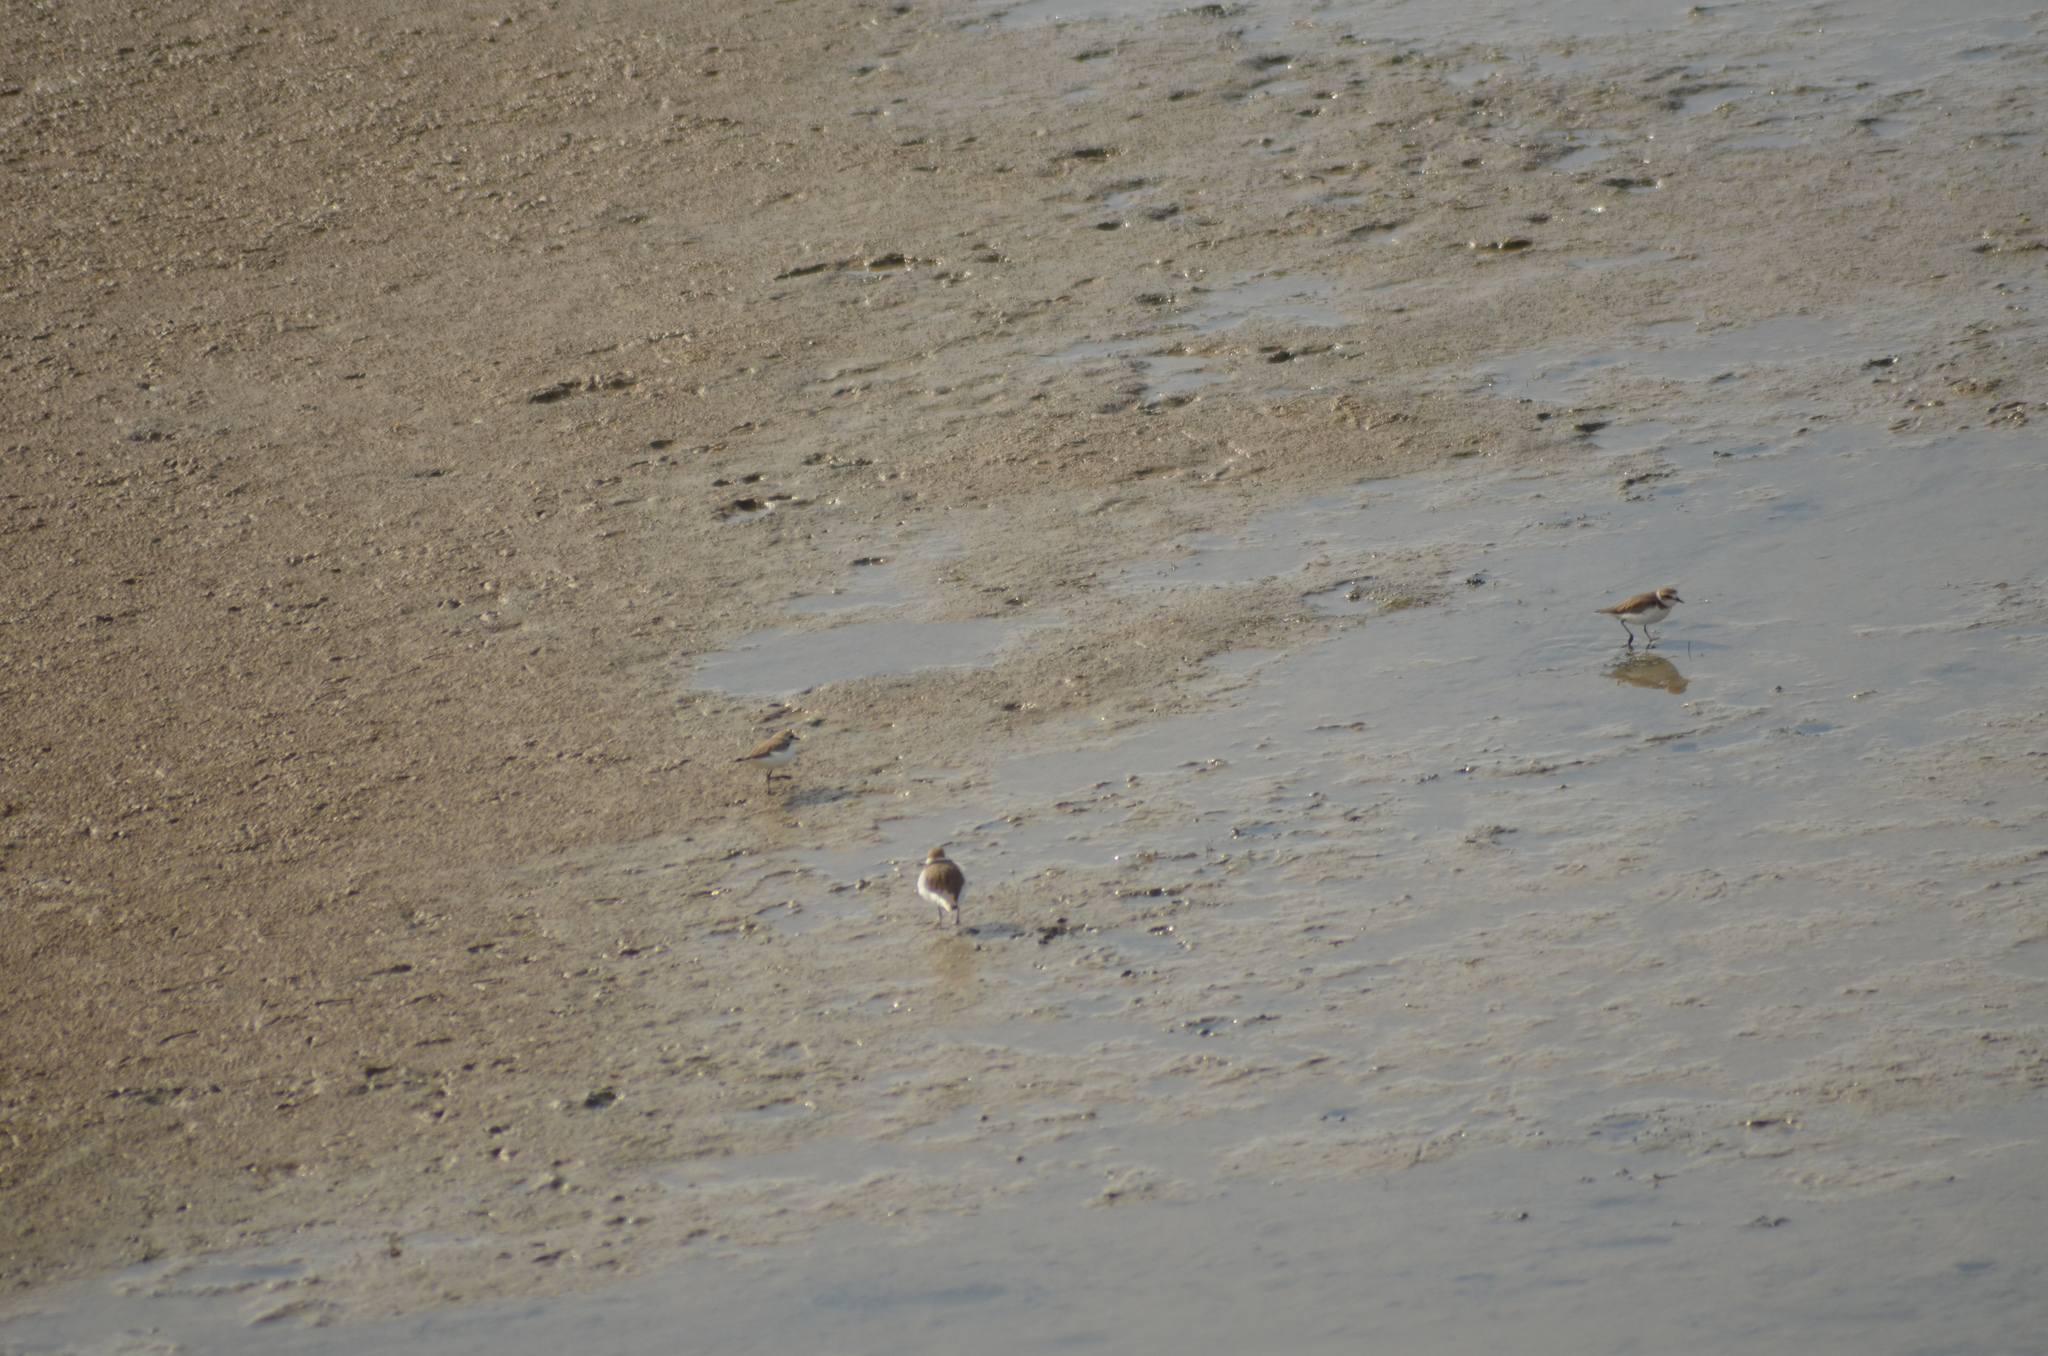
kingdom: Animalia
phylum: Chordata
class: Aves
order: Charadriiformes
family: Charadriidae
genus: Charadrius
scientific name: Charadrius alexandrinus
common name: Kentish plover
